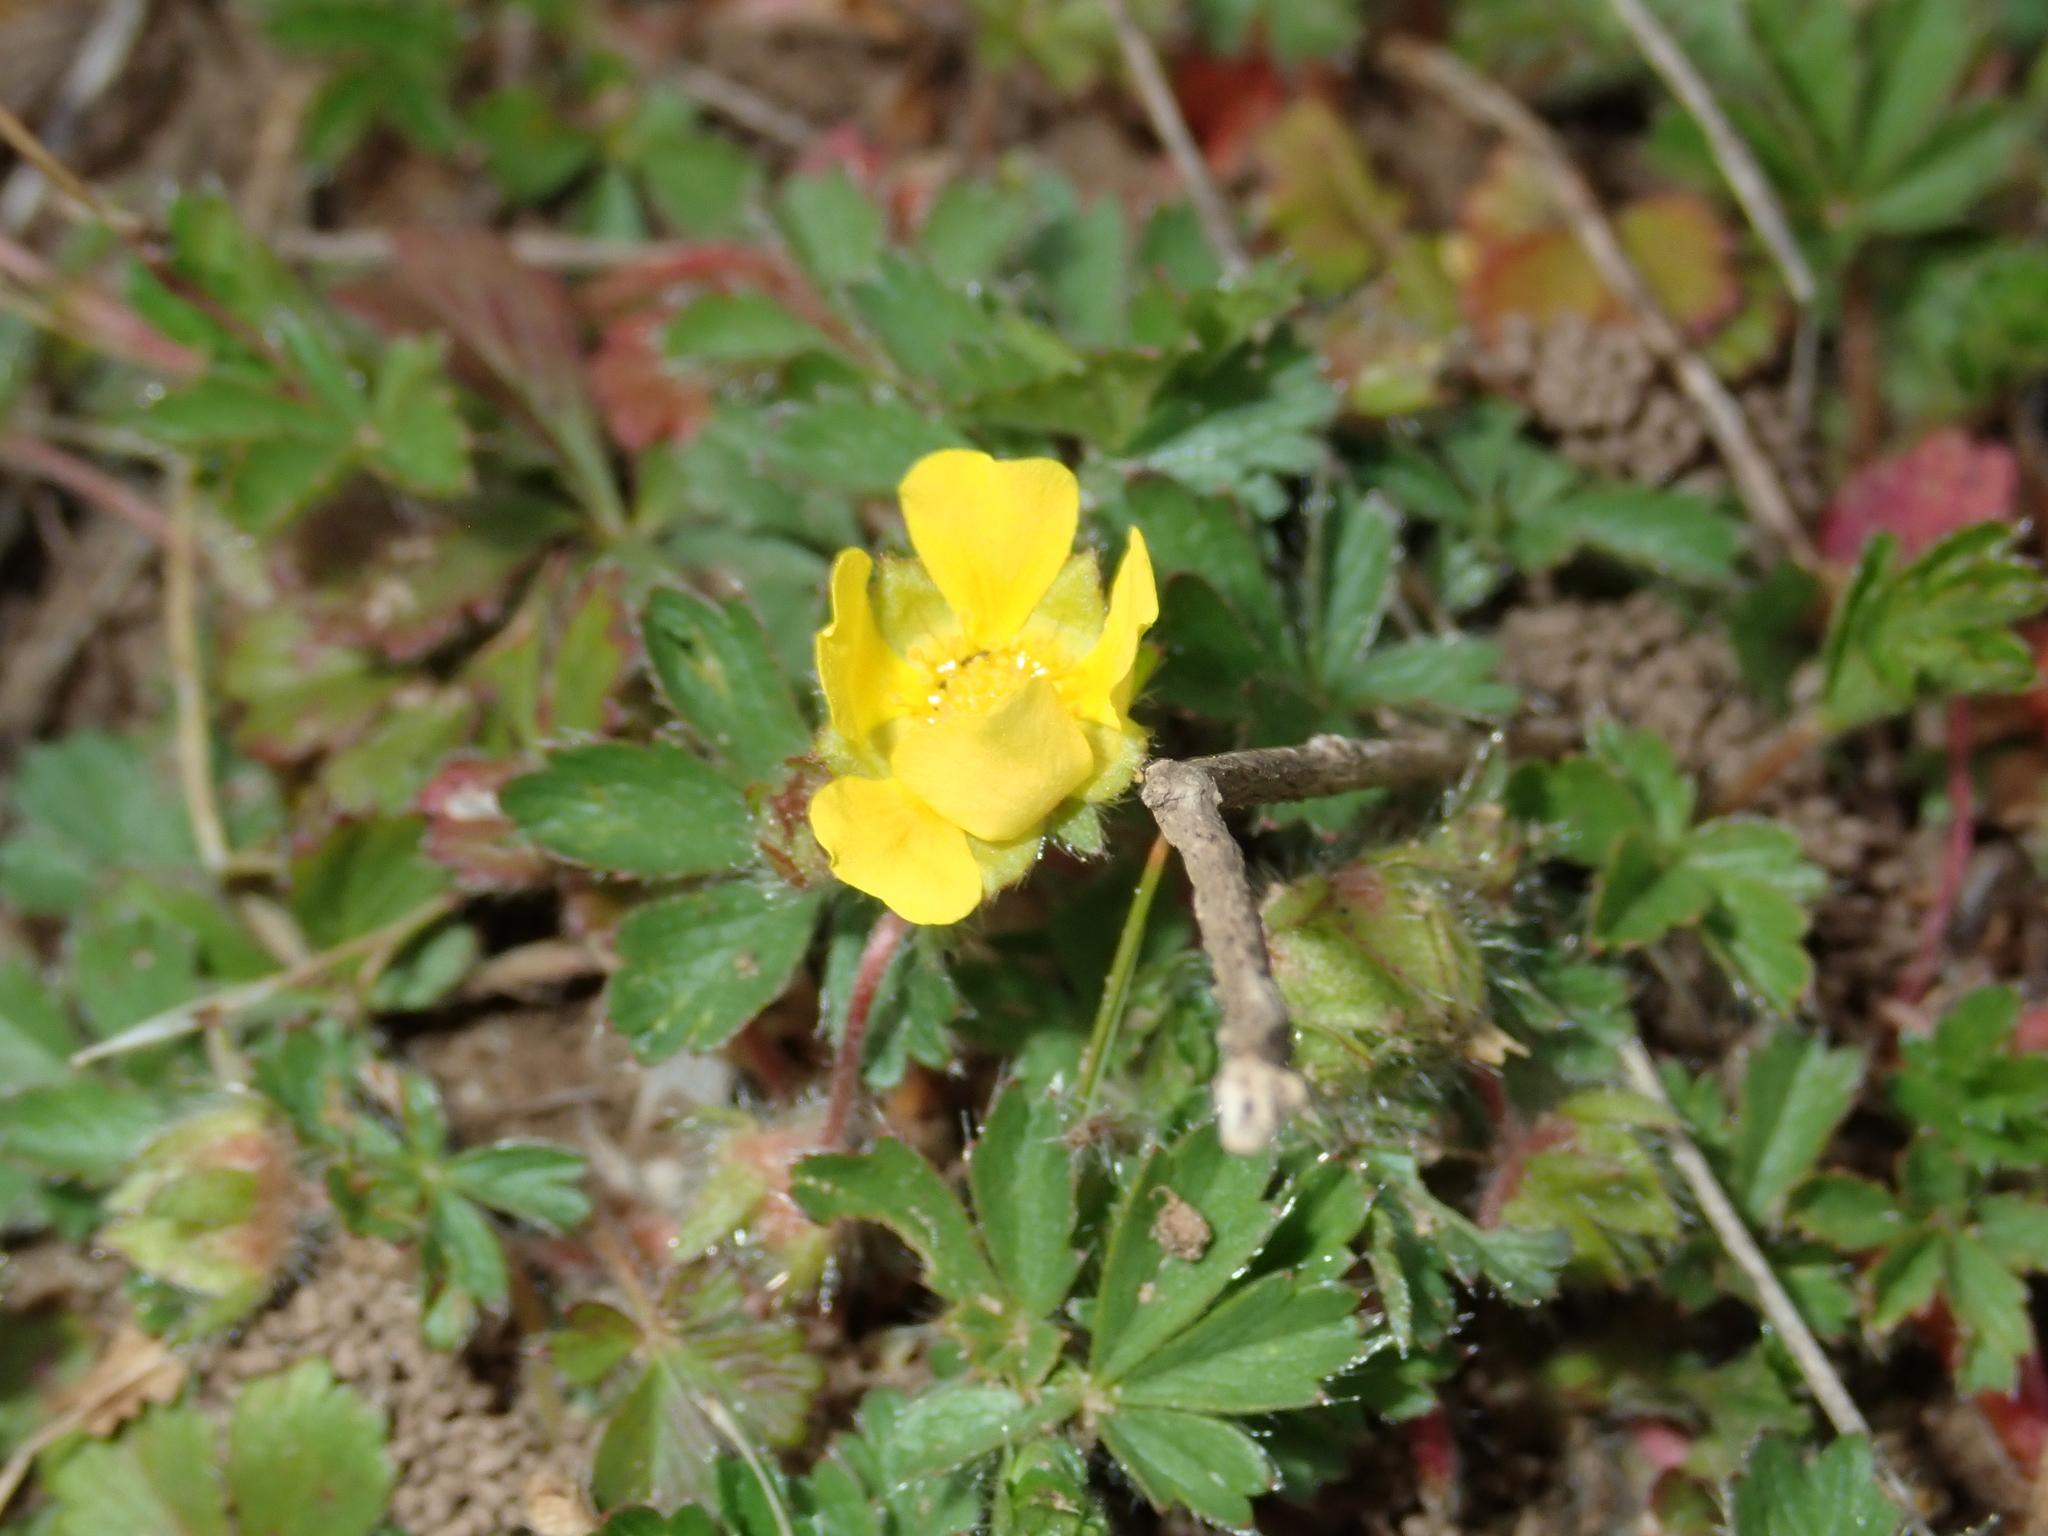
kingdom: Plantae
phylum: Tracheophyta
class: Magnoliopsida
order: Rosales
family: Rosaceae
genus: Potentilla
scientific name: Potentilla verna
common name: Spring cinquefoil
